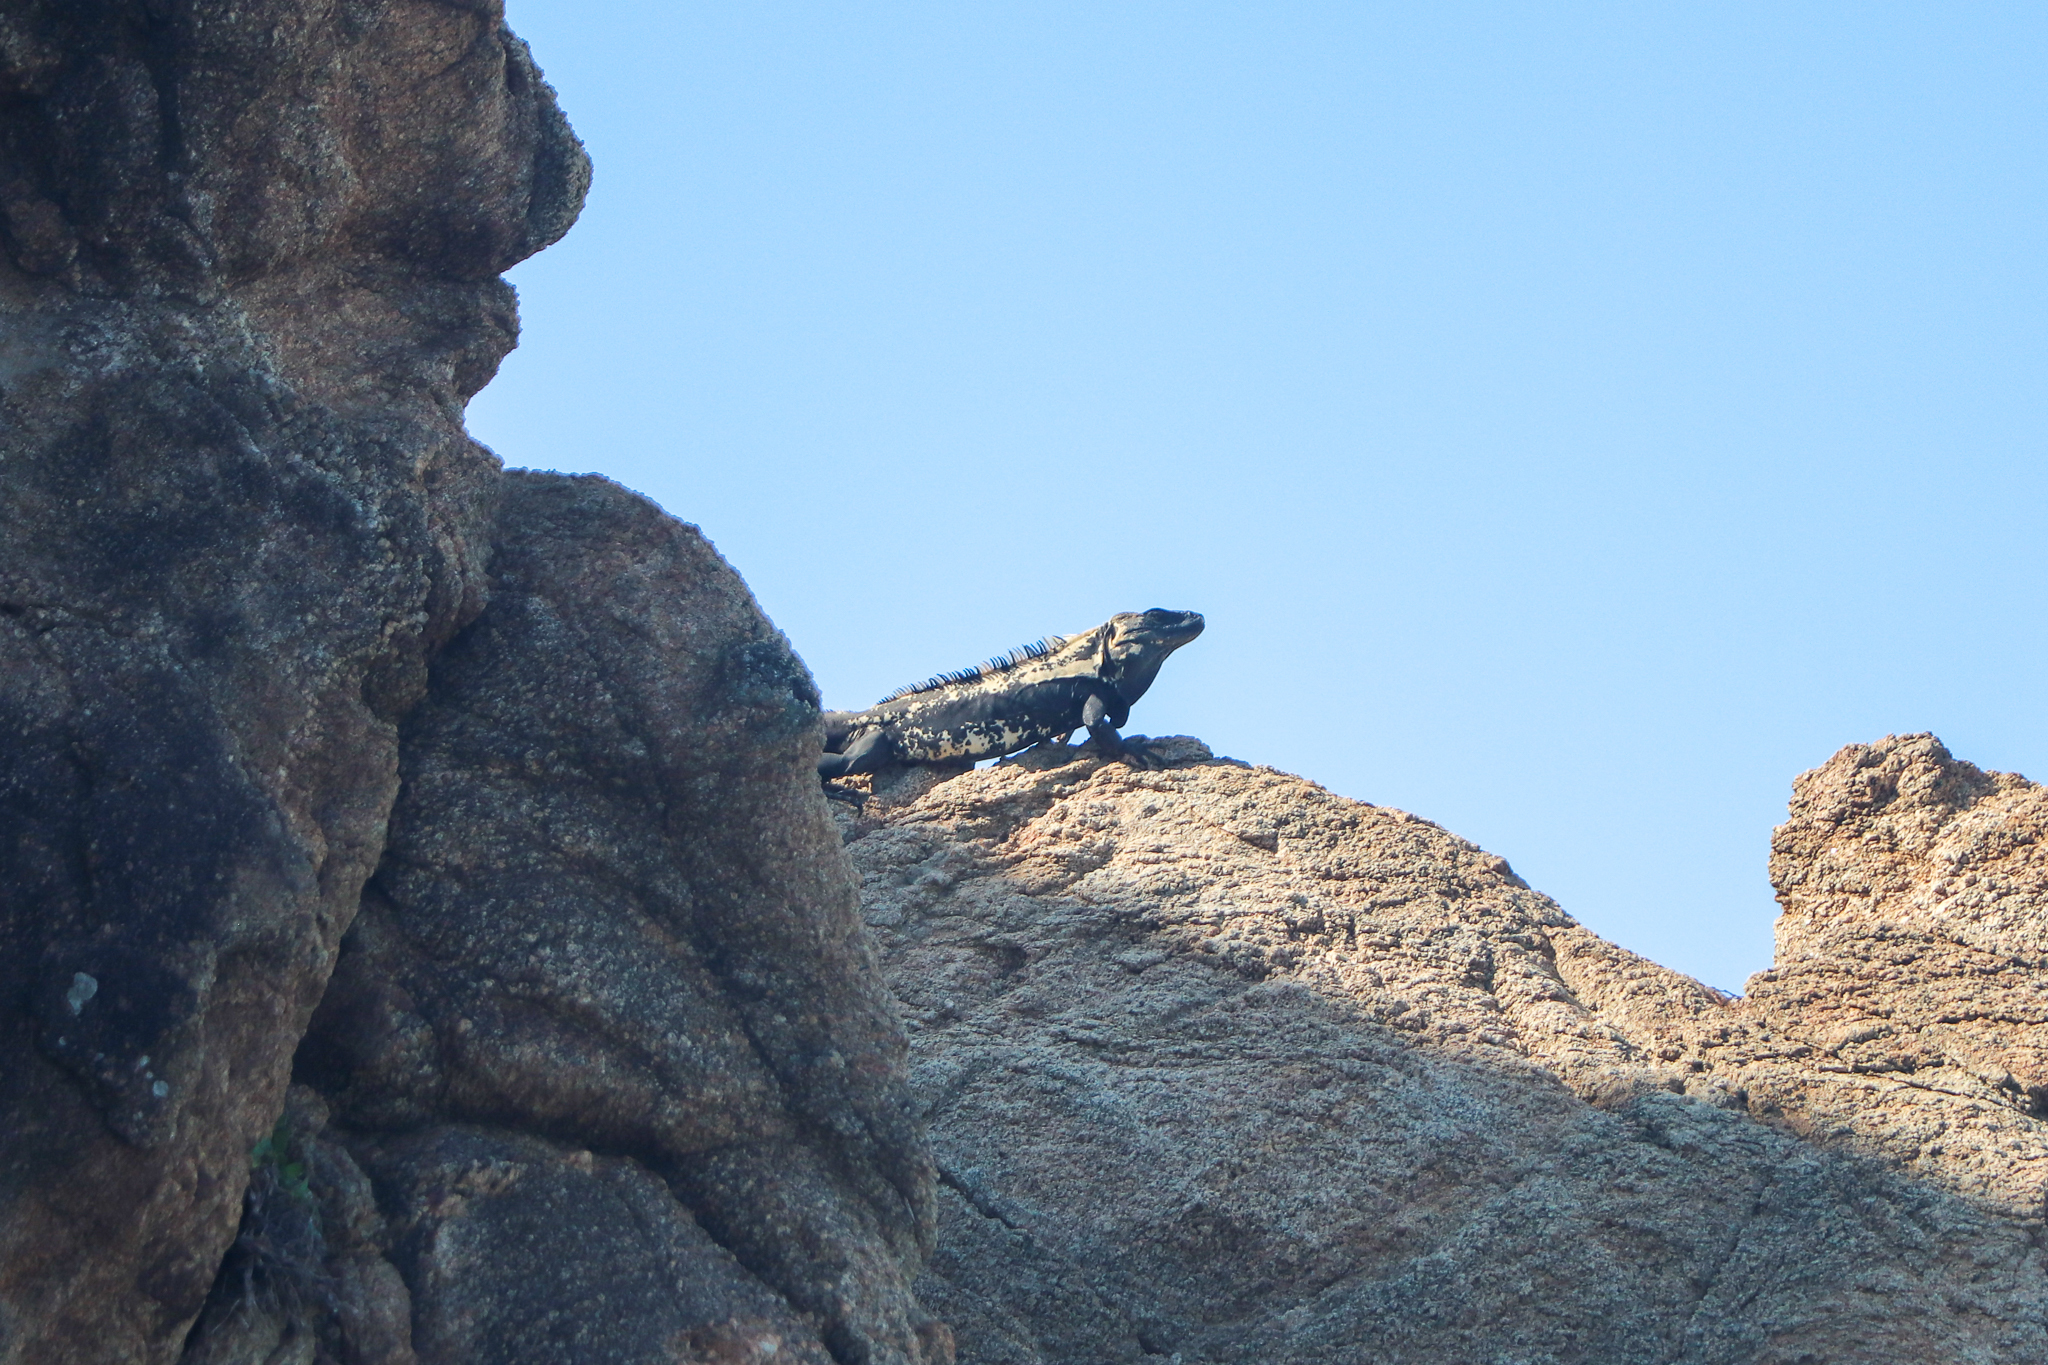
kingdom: Animalia
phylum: Chordata
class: Squamata
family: Iguanidae
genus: Ctenosaura
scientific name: Ctenosaura pectinata
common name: Guerreran spiny-tailed iguana
